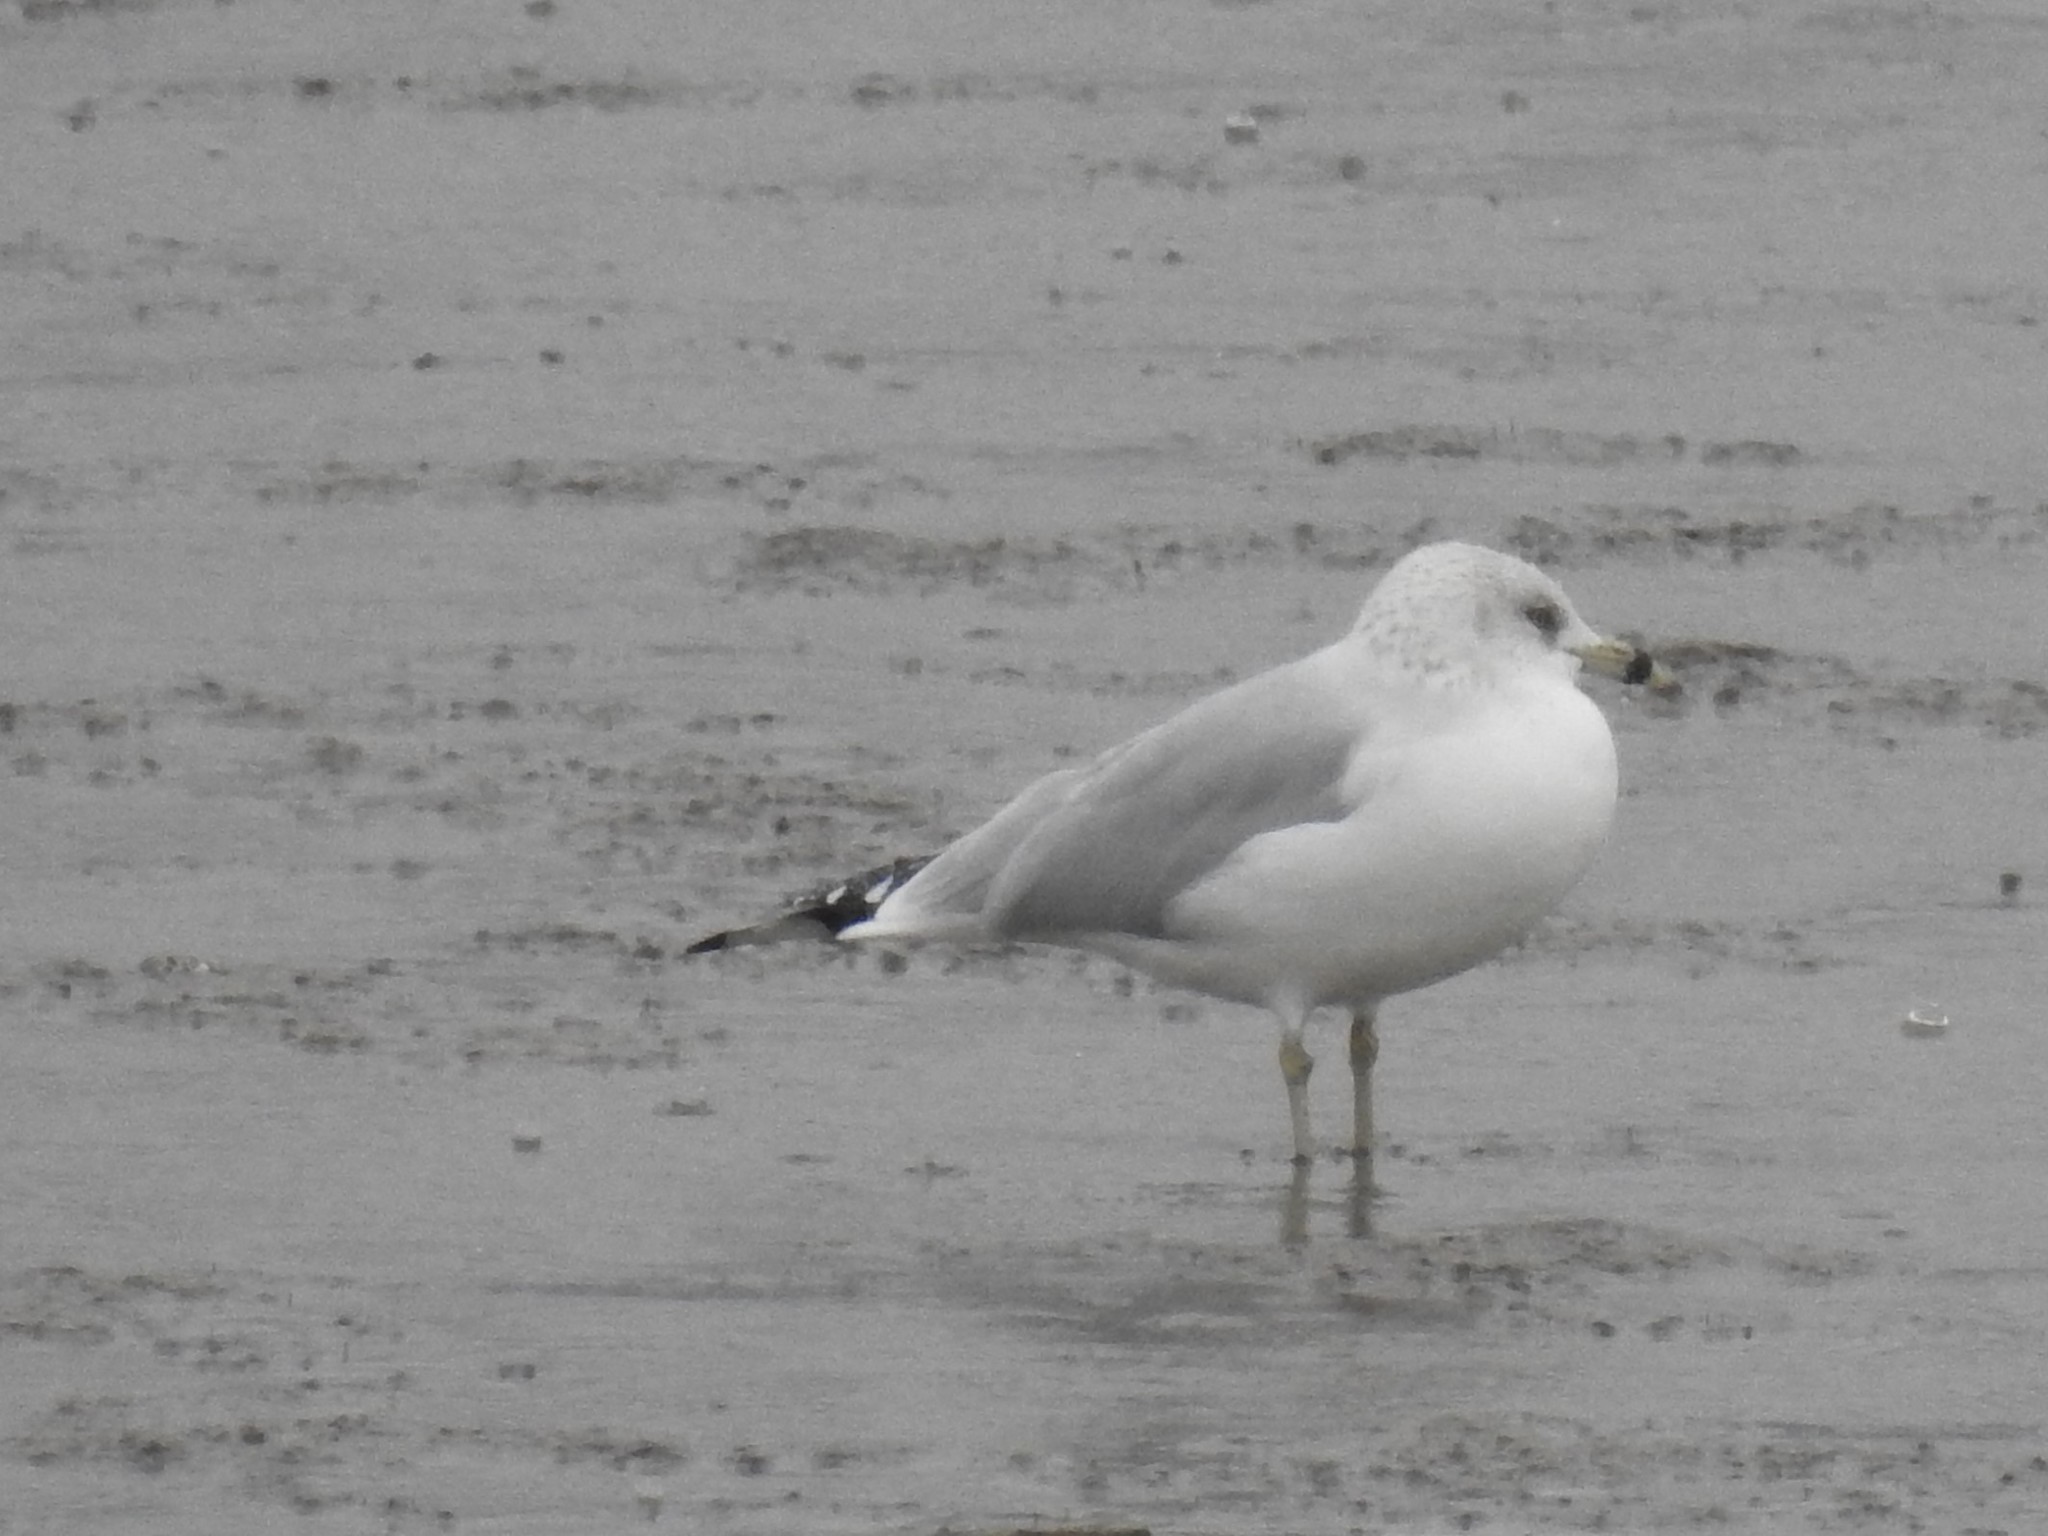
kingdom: Animalia
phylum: Chordata
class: Aves
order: Charadriiformes
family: Laridae
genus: Larus
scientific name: Larus delawarensis
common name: Ring-billed gull
